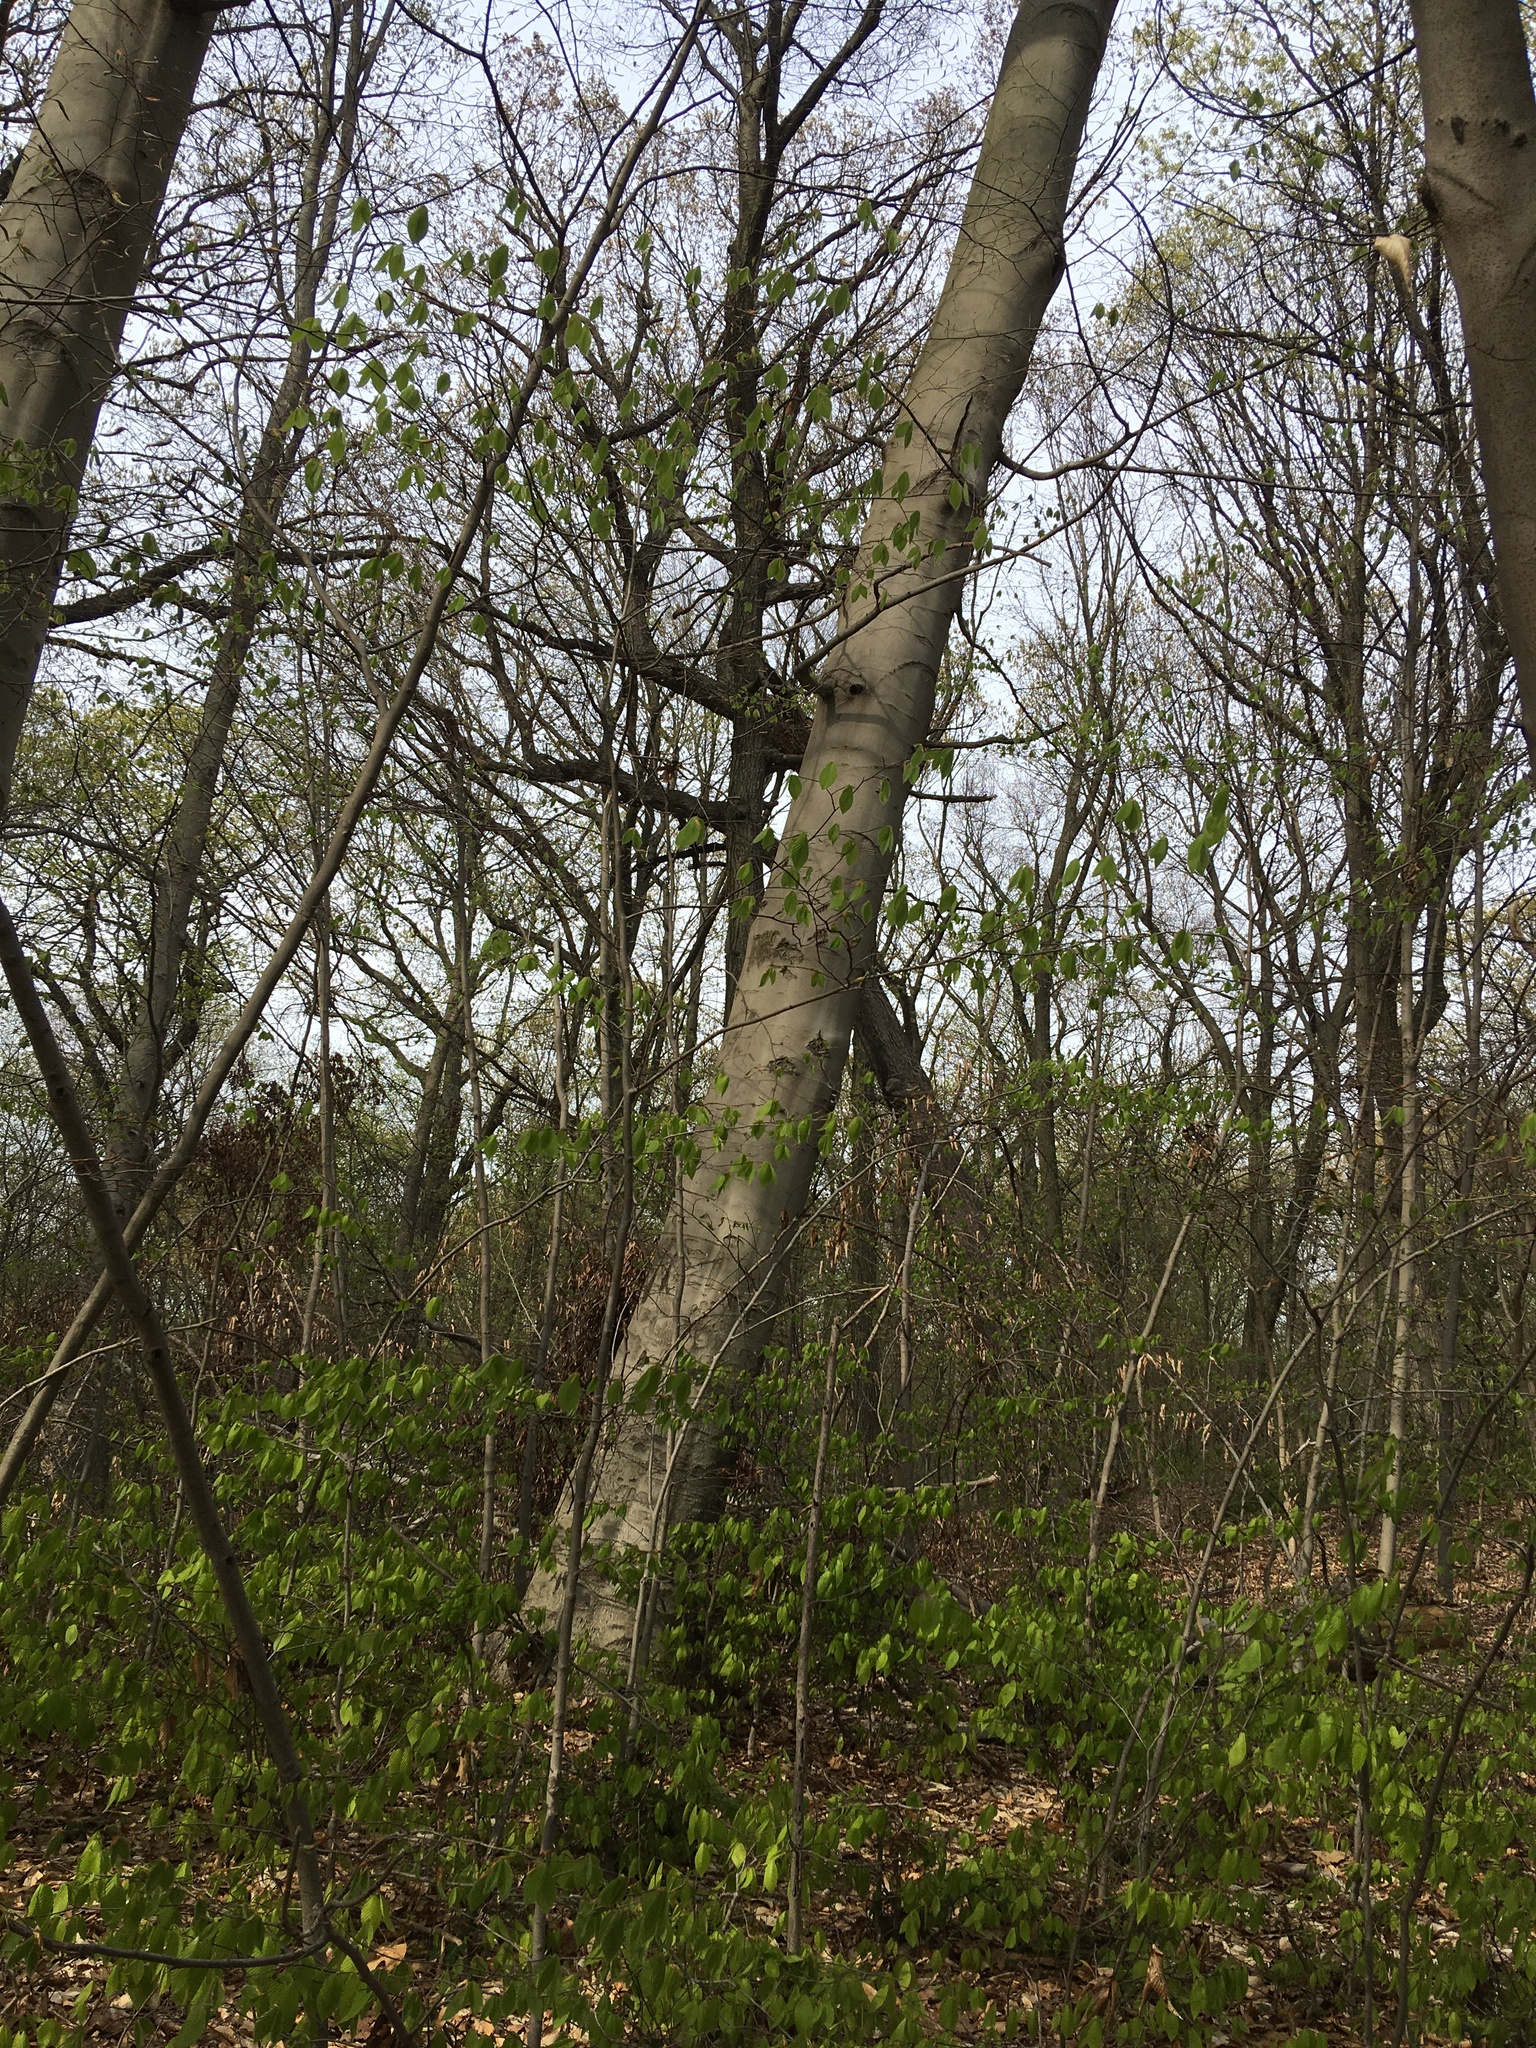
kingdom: Plantae
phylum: Tracheophyta
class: Magnoliopsida
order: Fagales
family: Fagaceae
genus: Fagus
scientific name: Fagus grandifolia
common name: American beech
